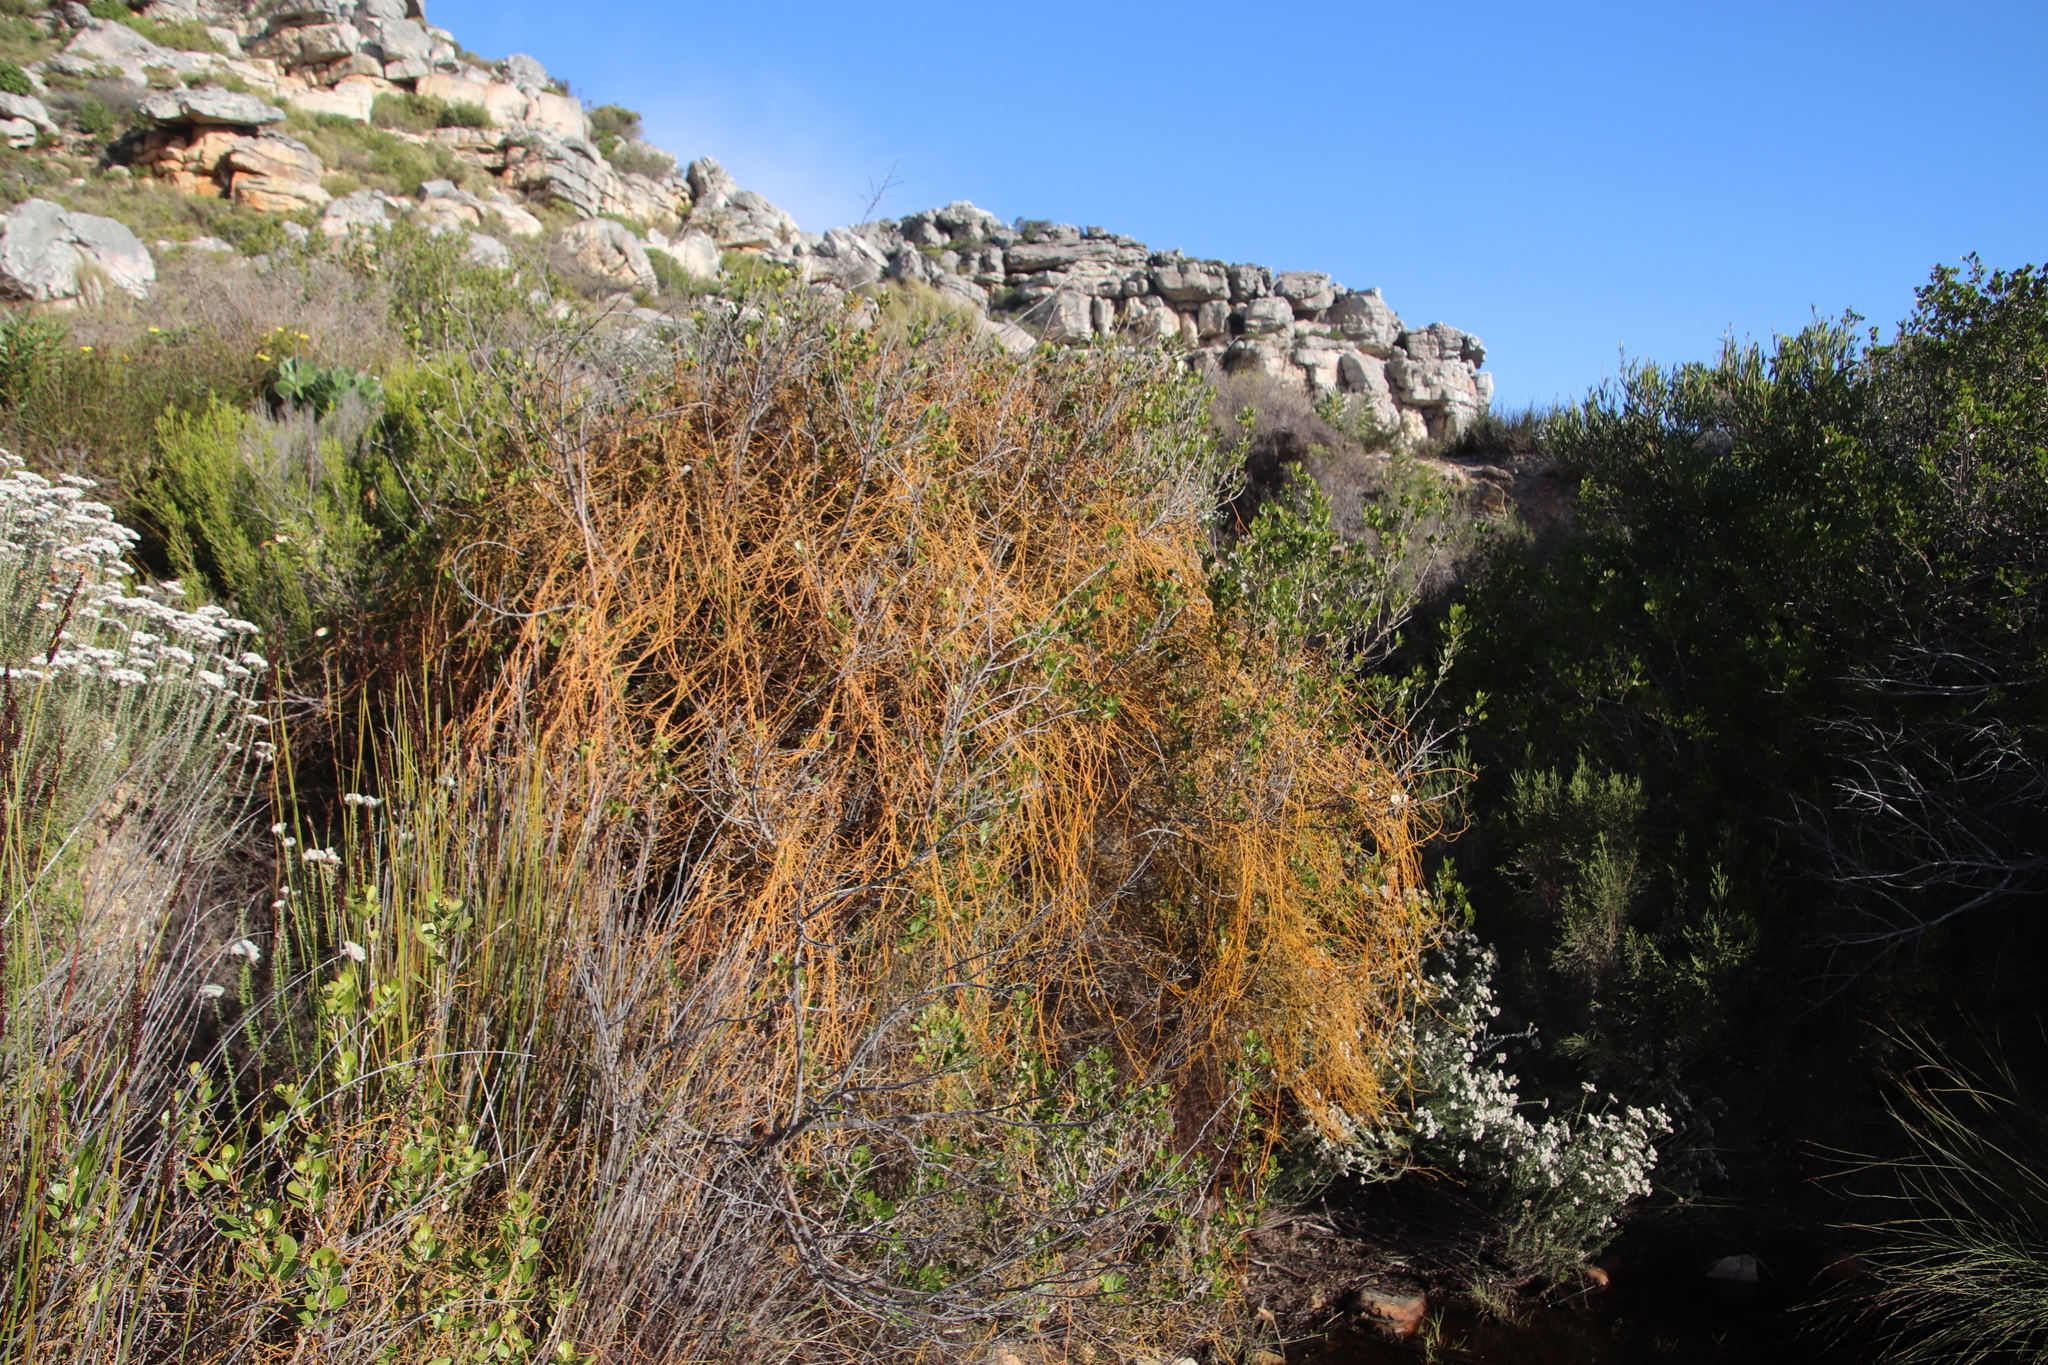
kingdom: Plantae
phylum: Tracheophyta
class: Magnoliopsida
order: Laurales
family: Lauraceae
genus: Cassytha
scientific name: Cassytha ciliolata
